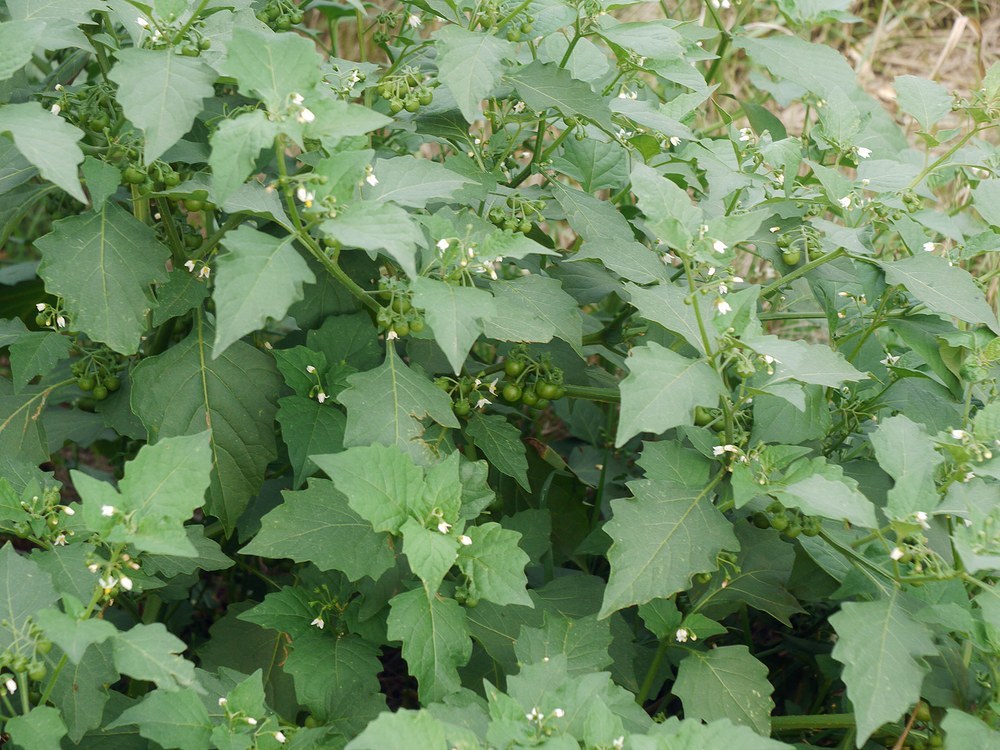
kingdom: Plantae
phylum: Tracheophyta
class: Magnoliopsida
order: Solanales
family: Solanaceae
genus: Solanum
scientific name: Solanum nigrum
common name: Black nightshade
